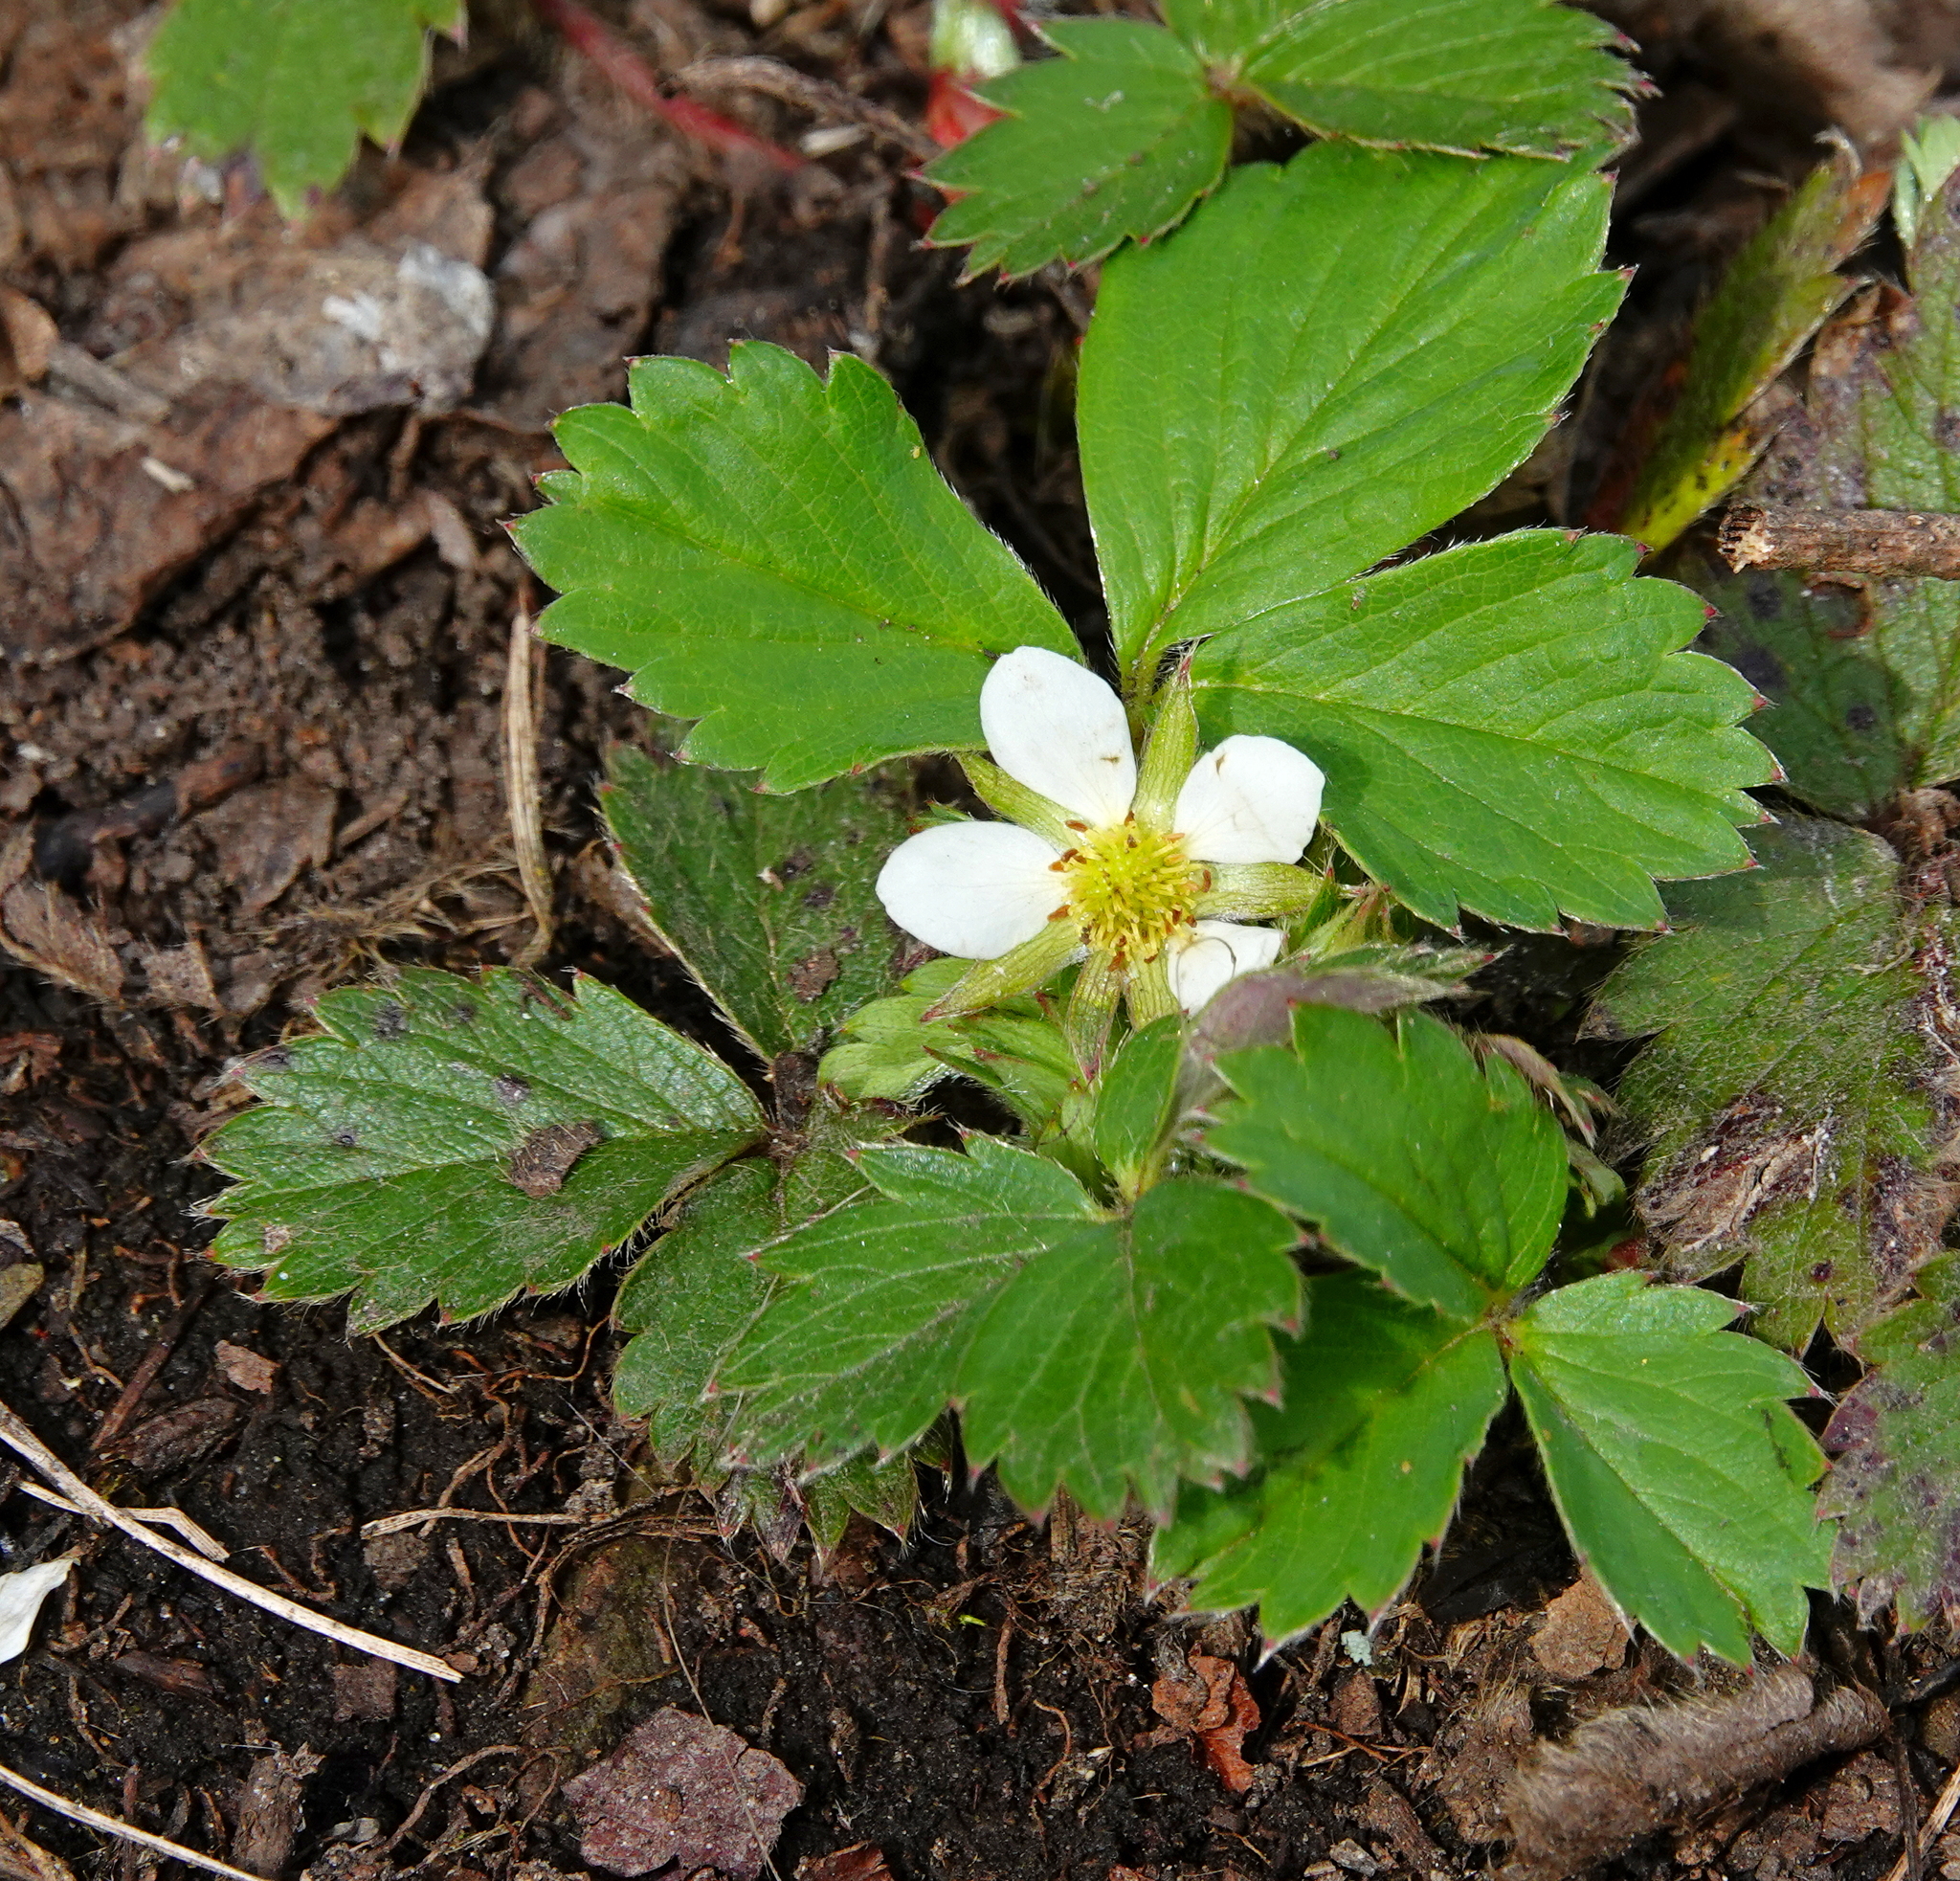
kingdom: Plantae
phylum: Tracheophyta
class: Magnoliopsida
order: Rosales
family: Rosaceae
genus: Fragaria
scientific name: Fragaria virginiana
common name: Thickleaved wild strawberry
